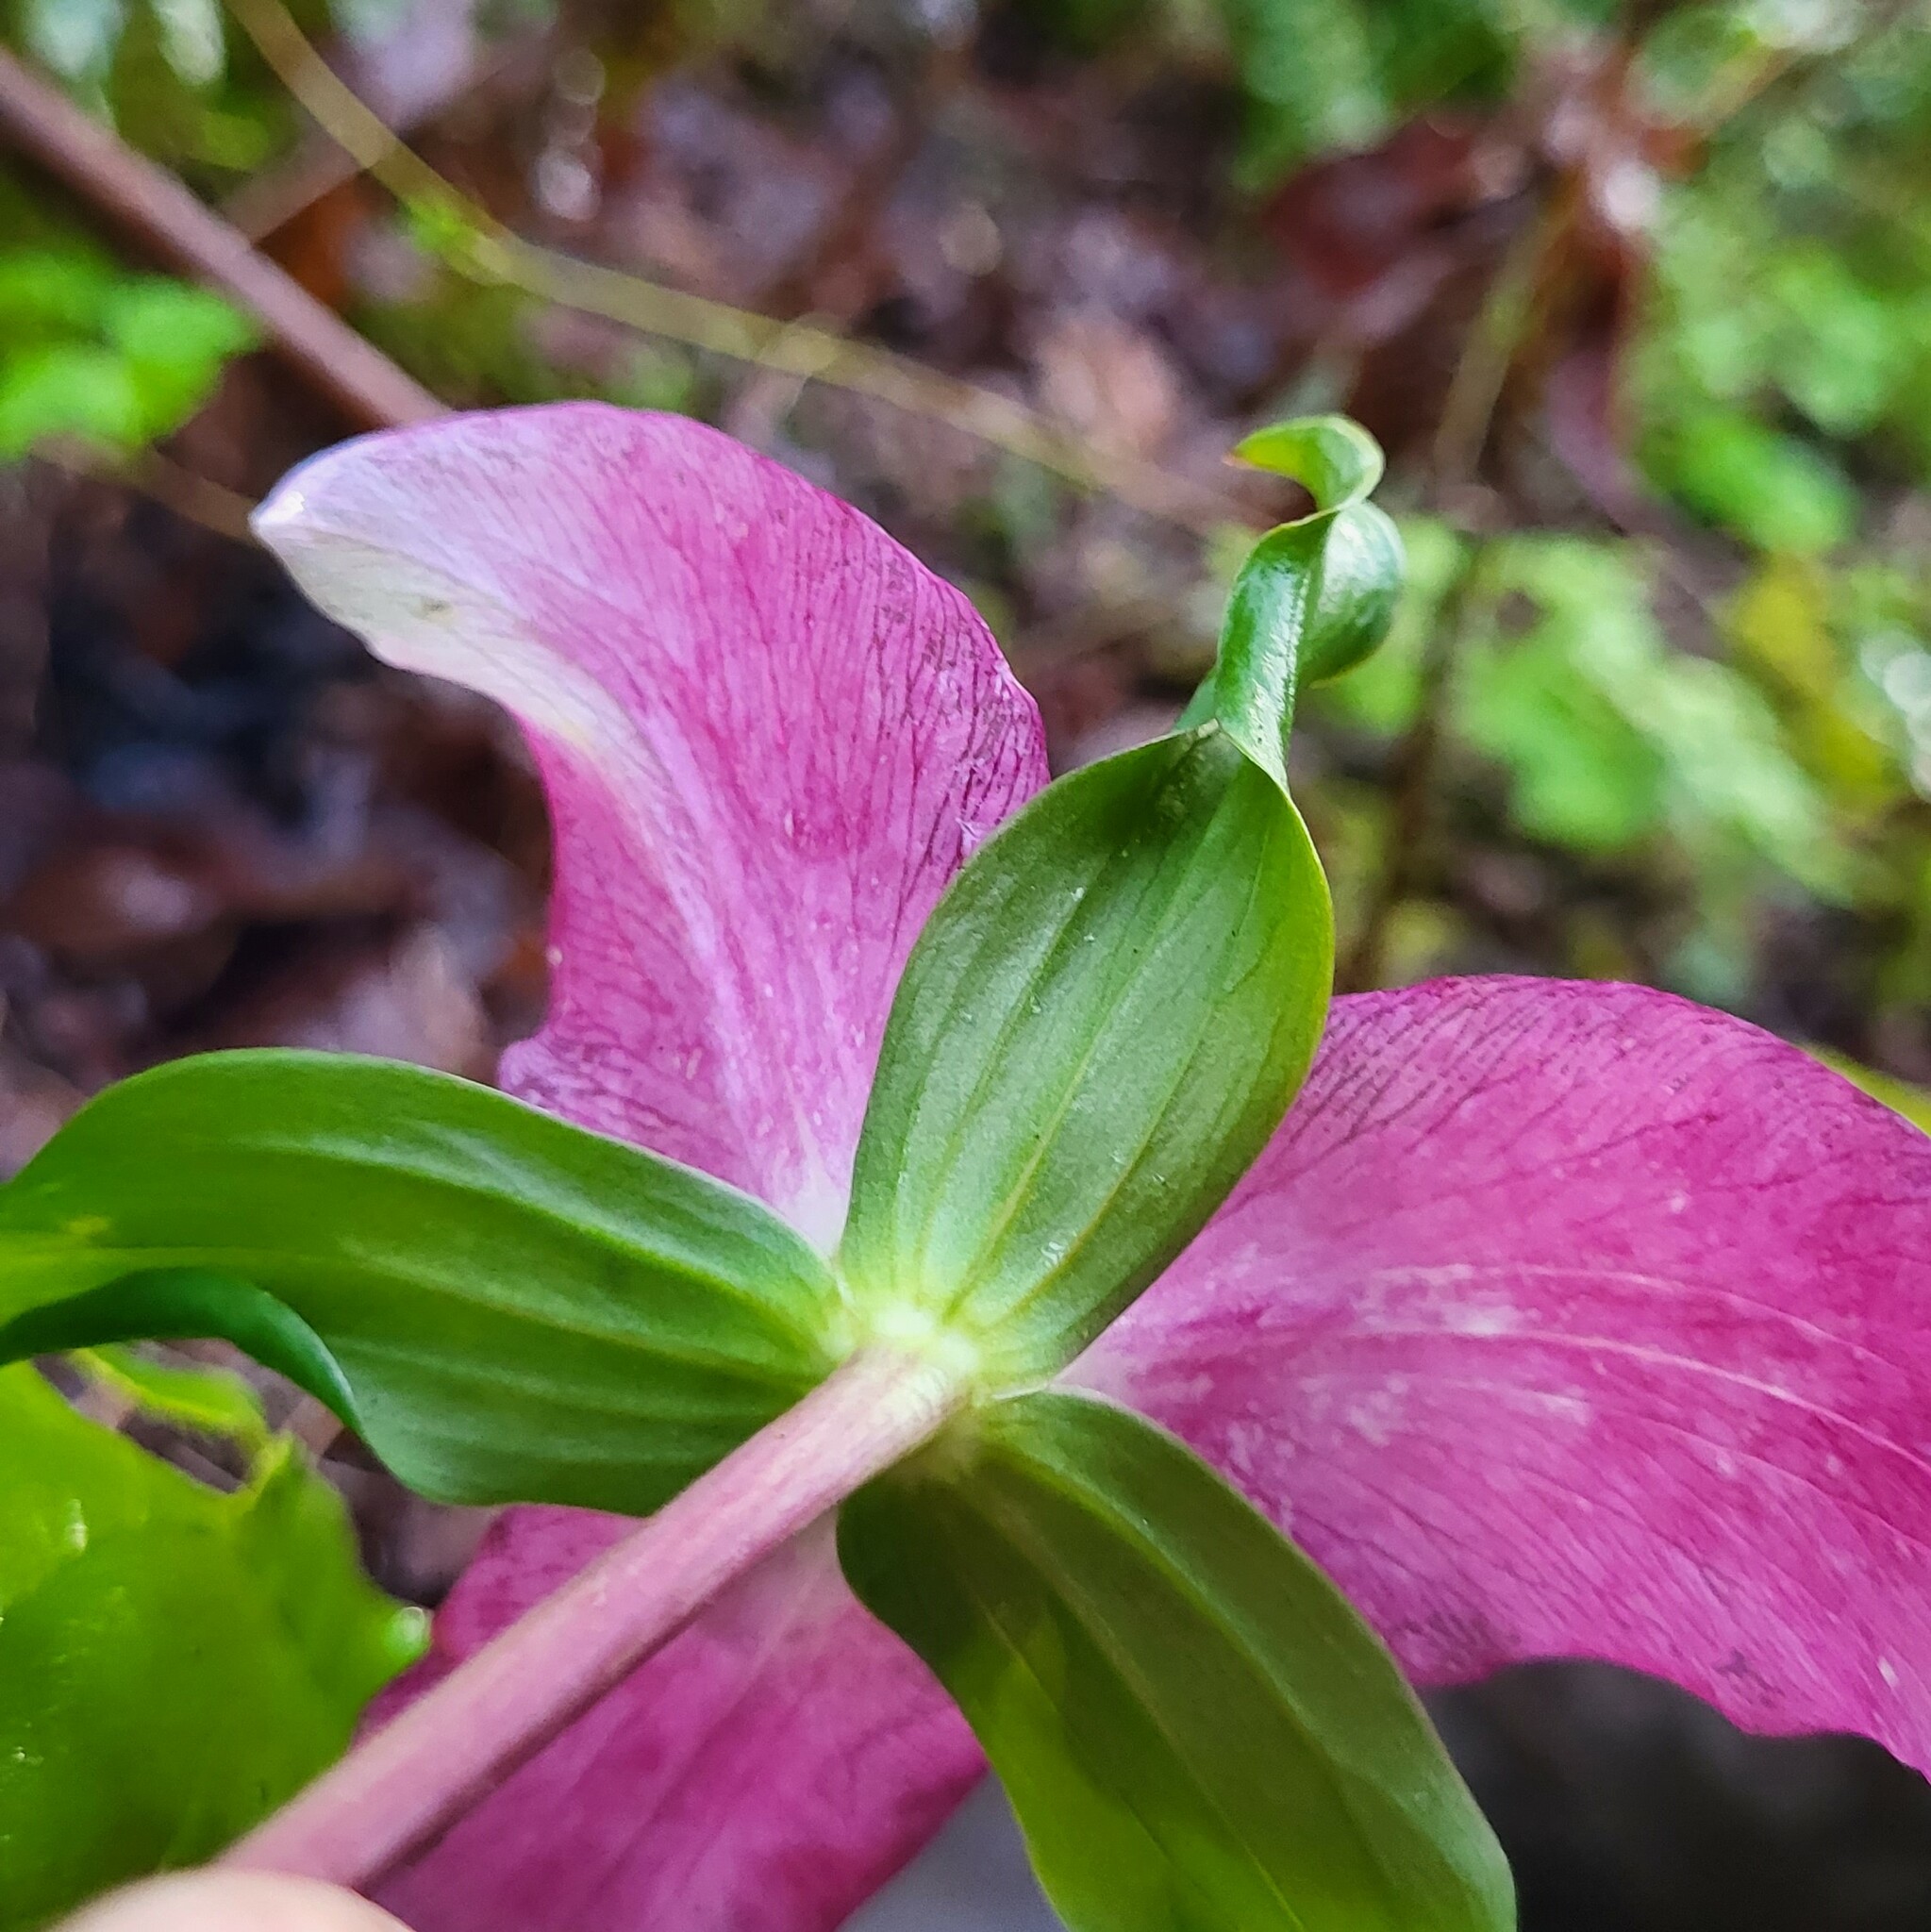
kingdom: Plantae
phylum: Tracheophyta
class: Liliopsida
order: Liliales
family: Melanthiaceae
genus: Trillium
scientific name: Trillium ovatum
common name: Pacific trillium
